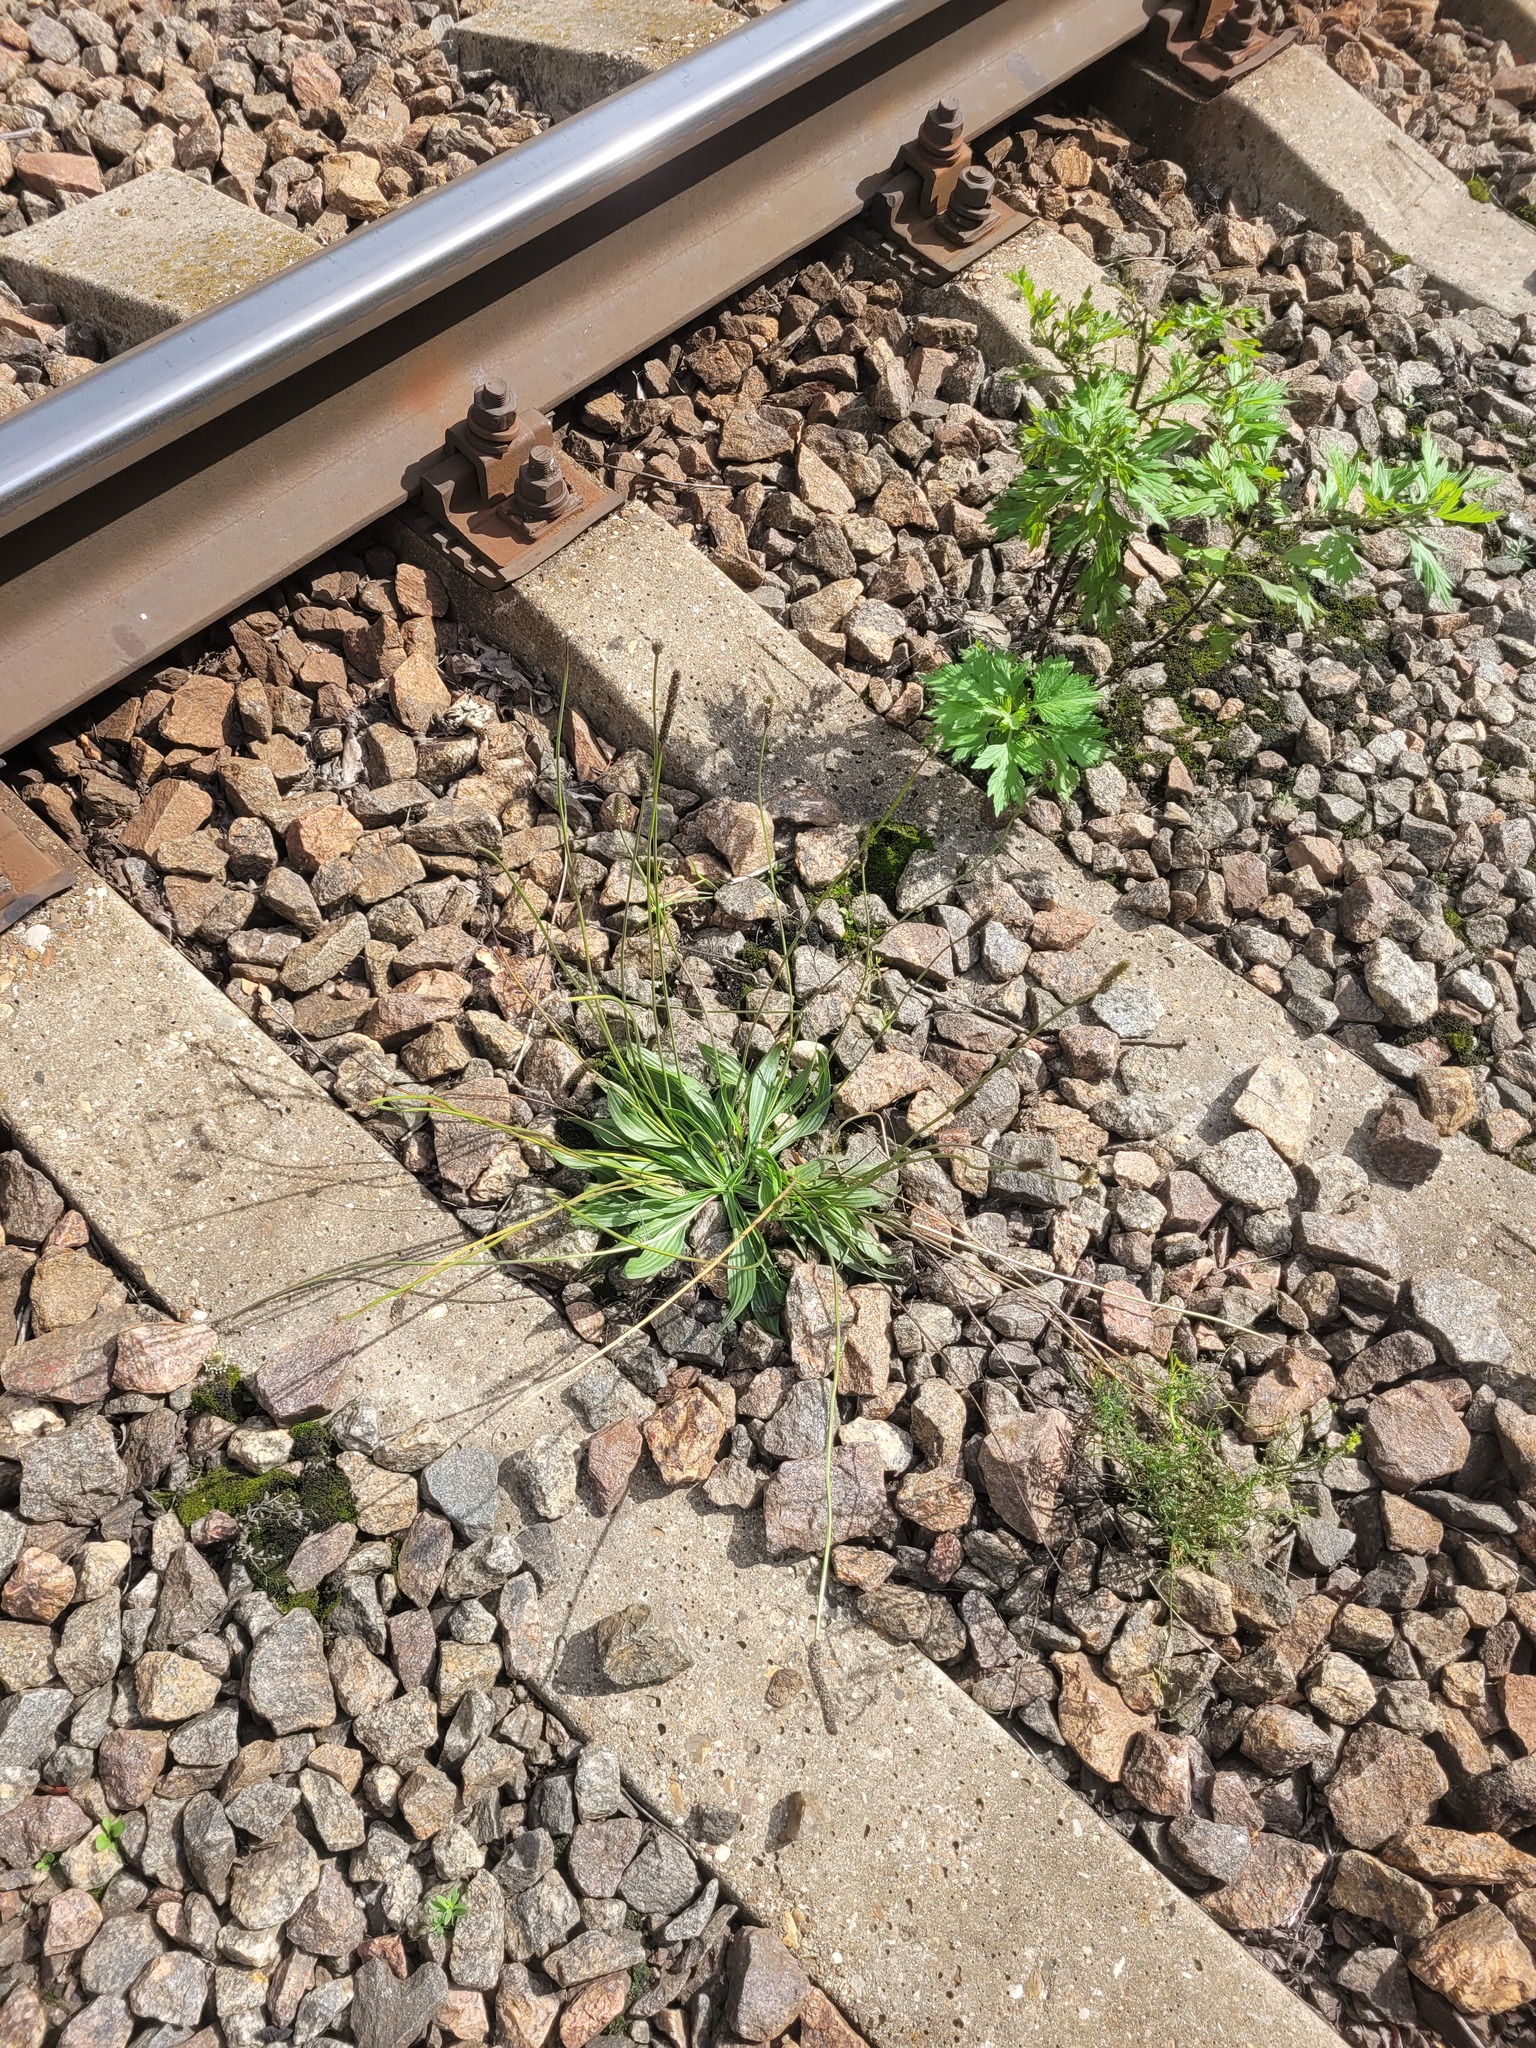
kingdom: Plantae
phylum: Tracheophyta
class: Magnoliopsida
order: Lamiales
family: Plantaginaceae
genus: Plantago
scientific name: Plantago lanceolata
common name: Ribwort plantain
